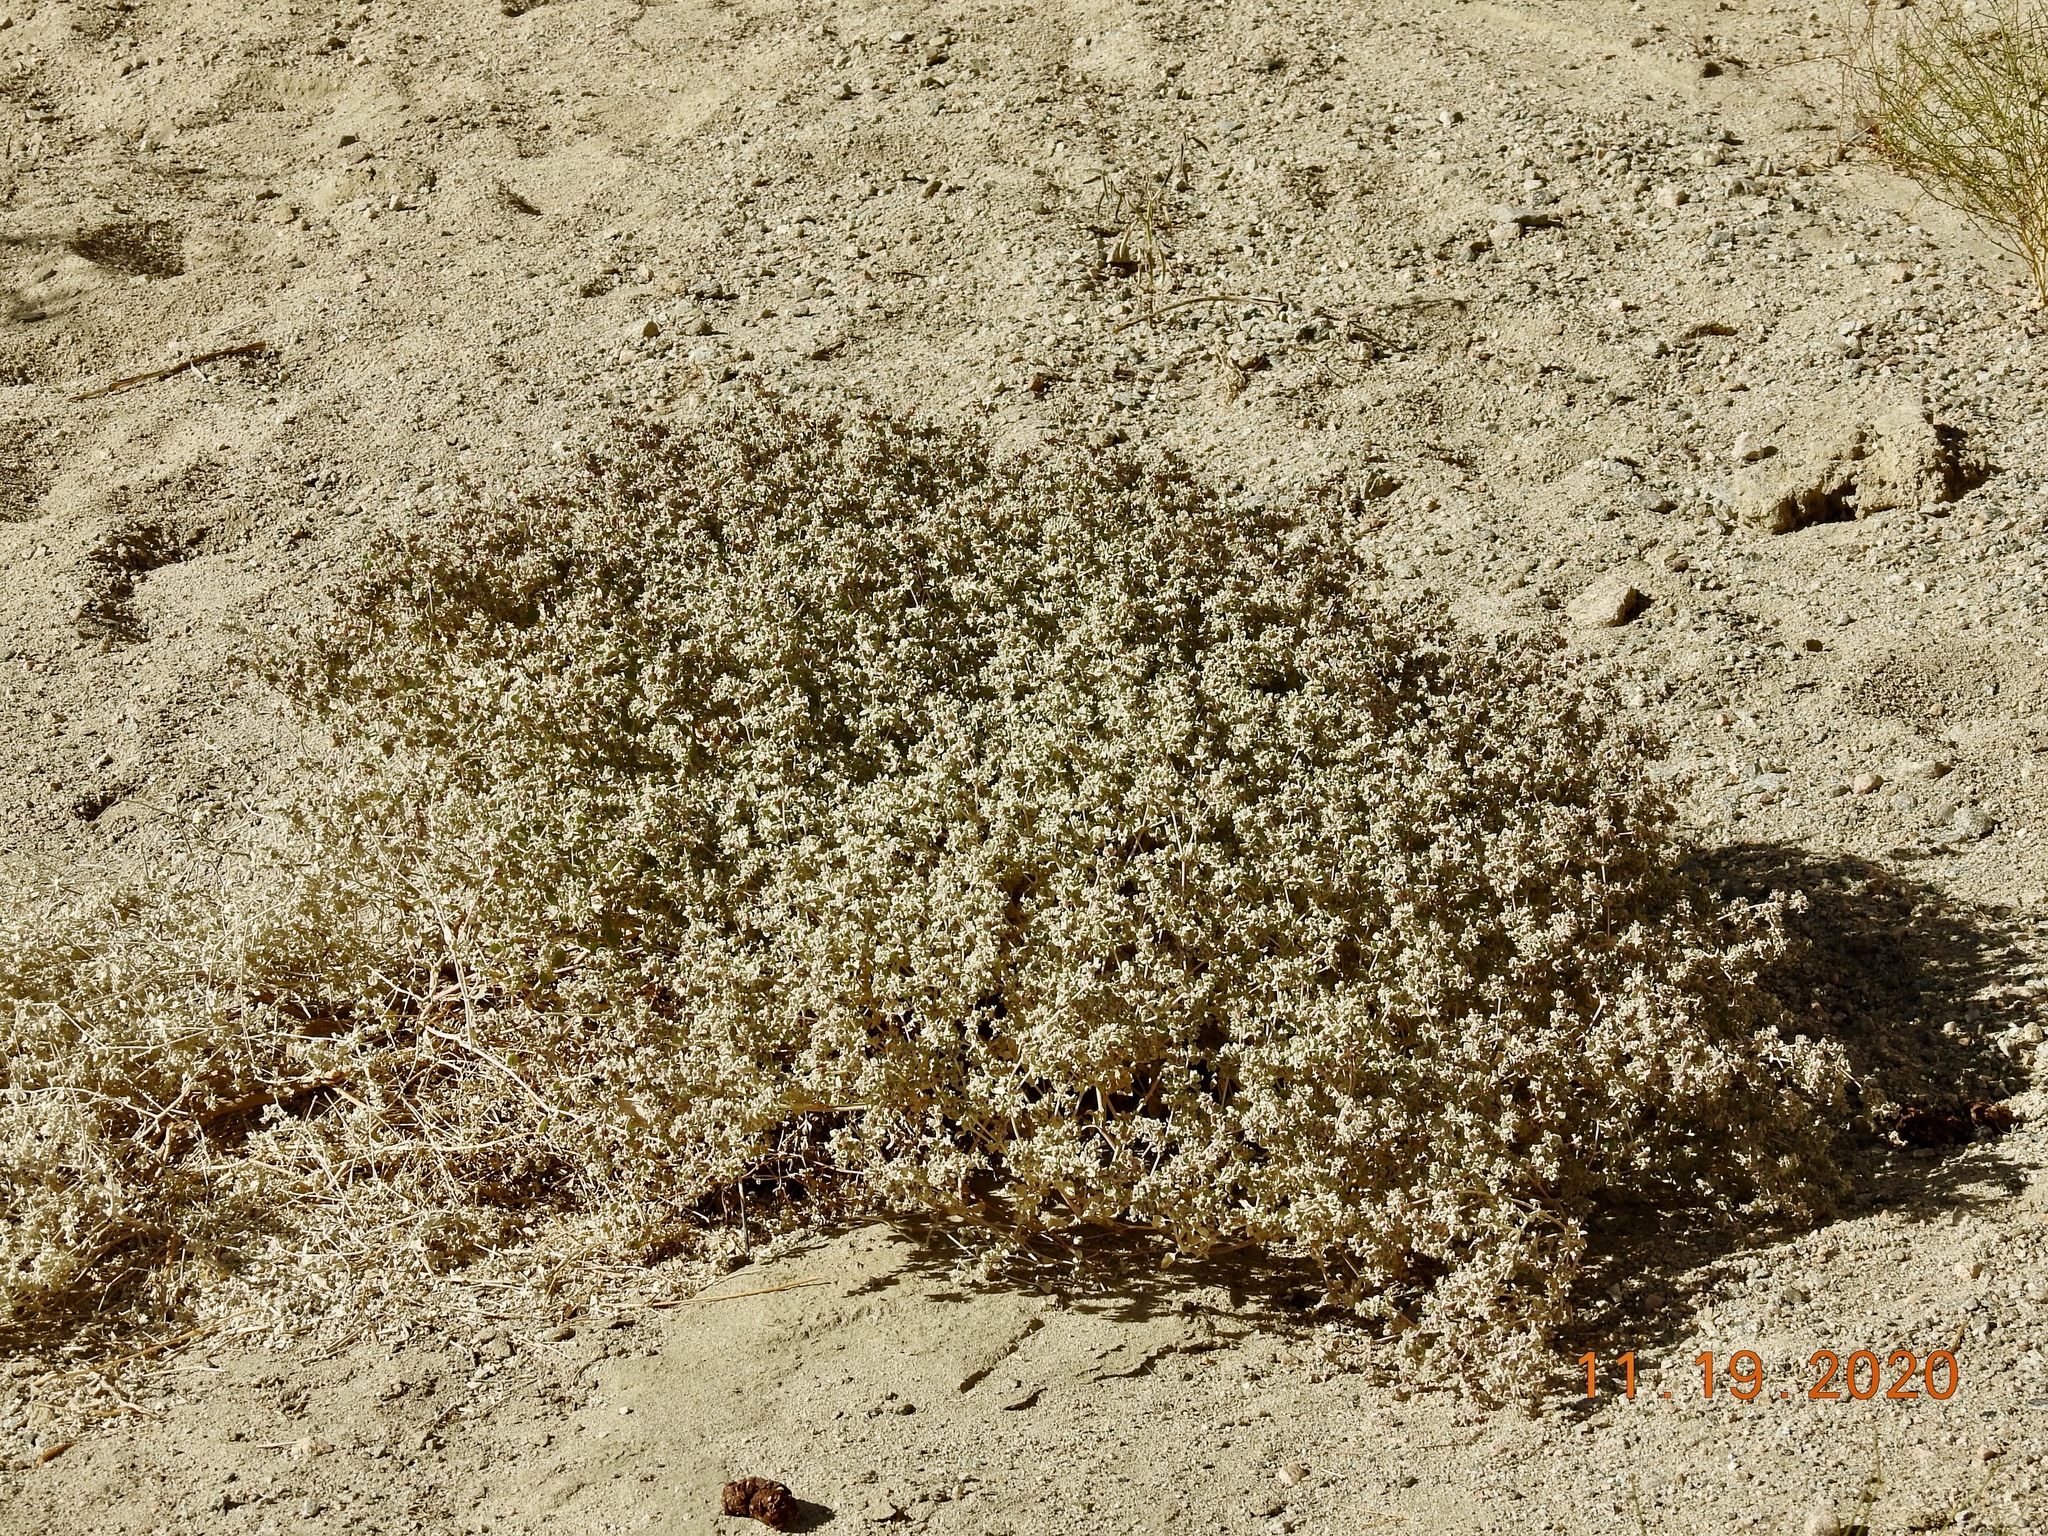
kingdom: Plantae
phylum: Tracheophyta
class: Magnoliopsida
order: Caryophyllales
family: Amaranthaceae
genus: Tidestromia
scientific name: Tidestromia suffruticosa
